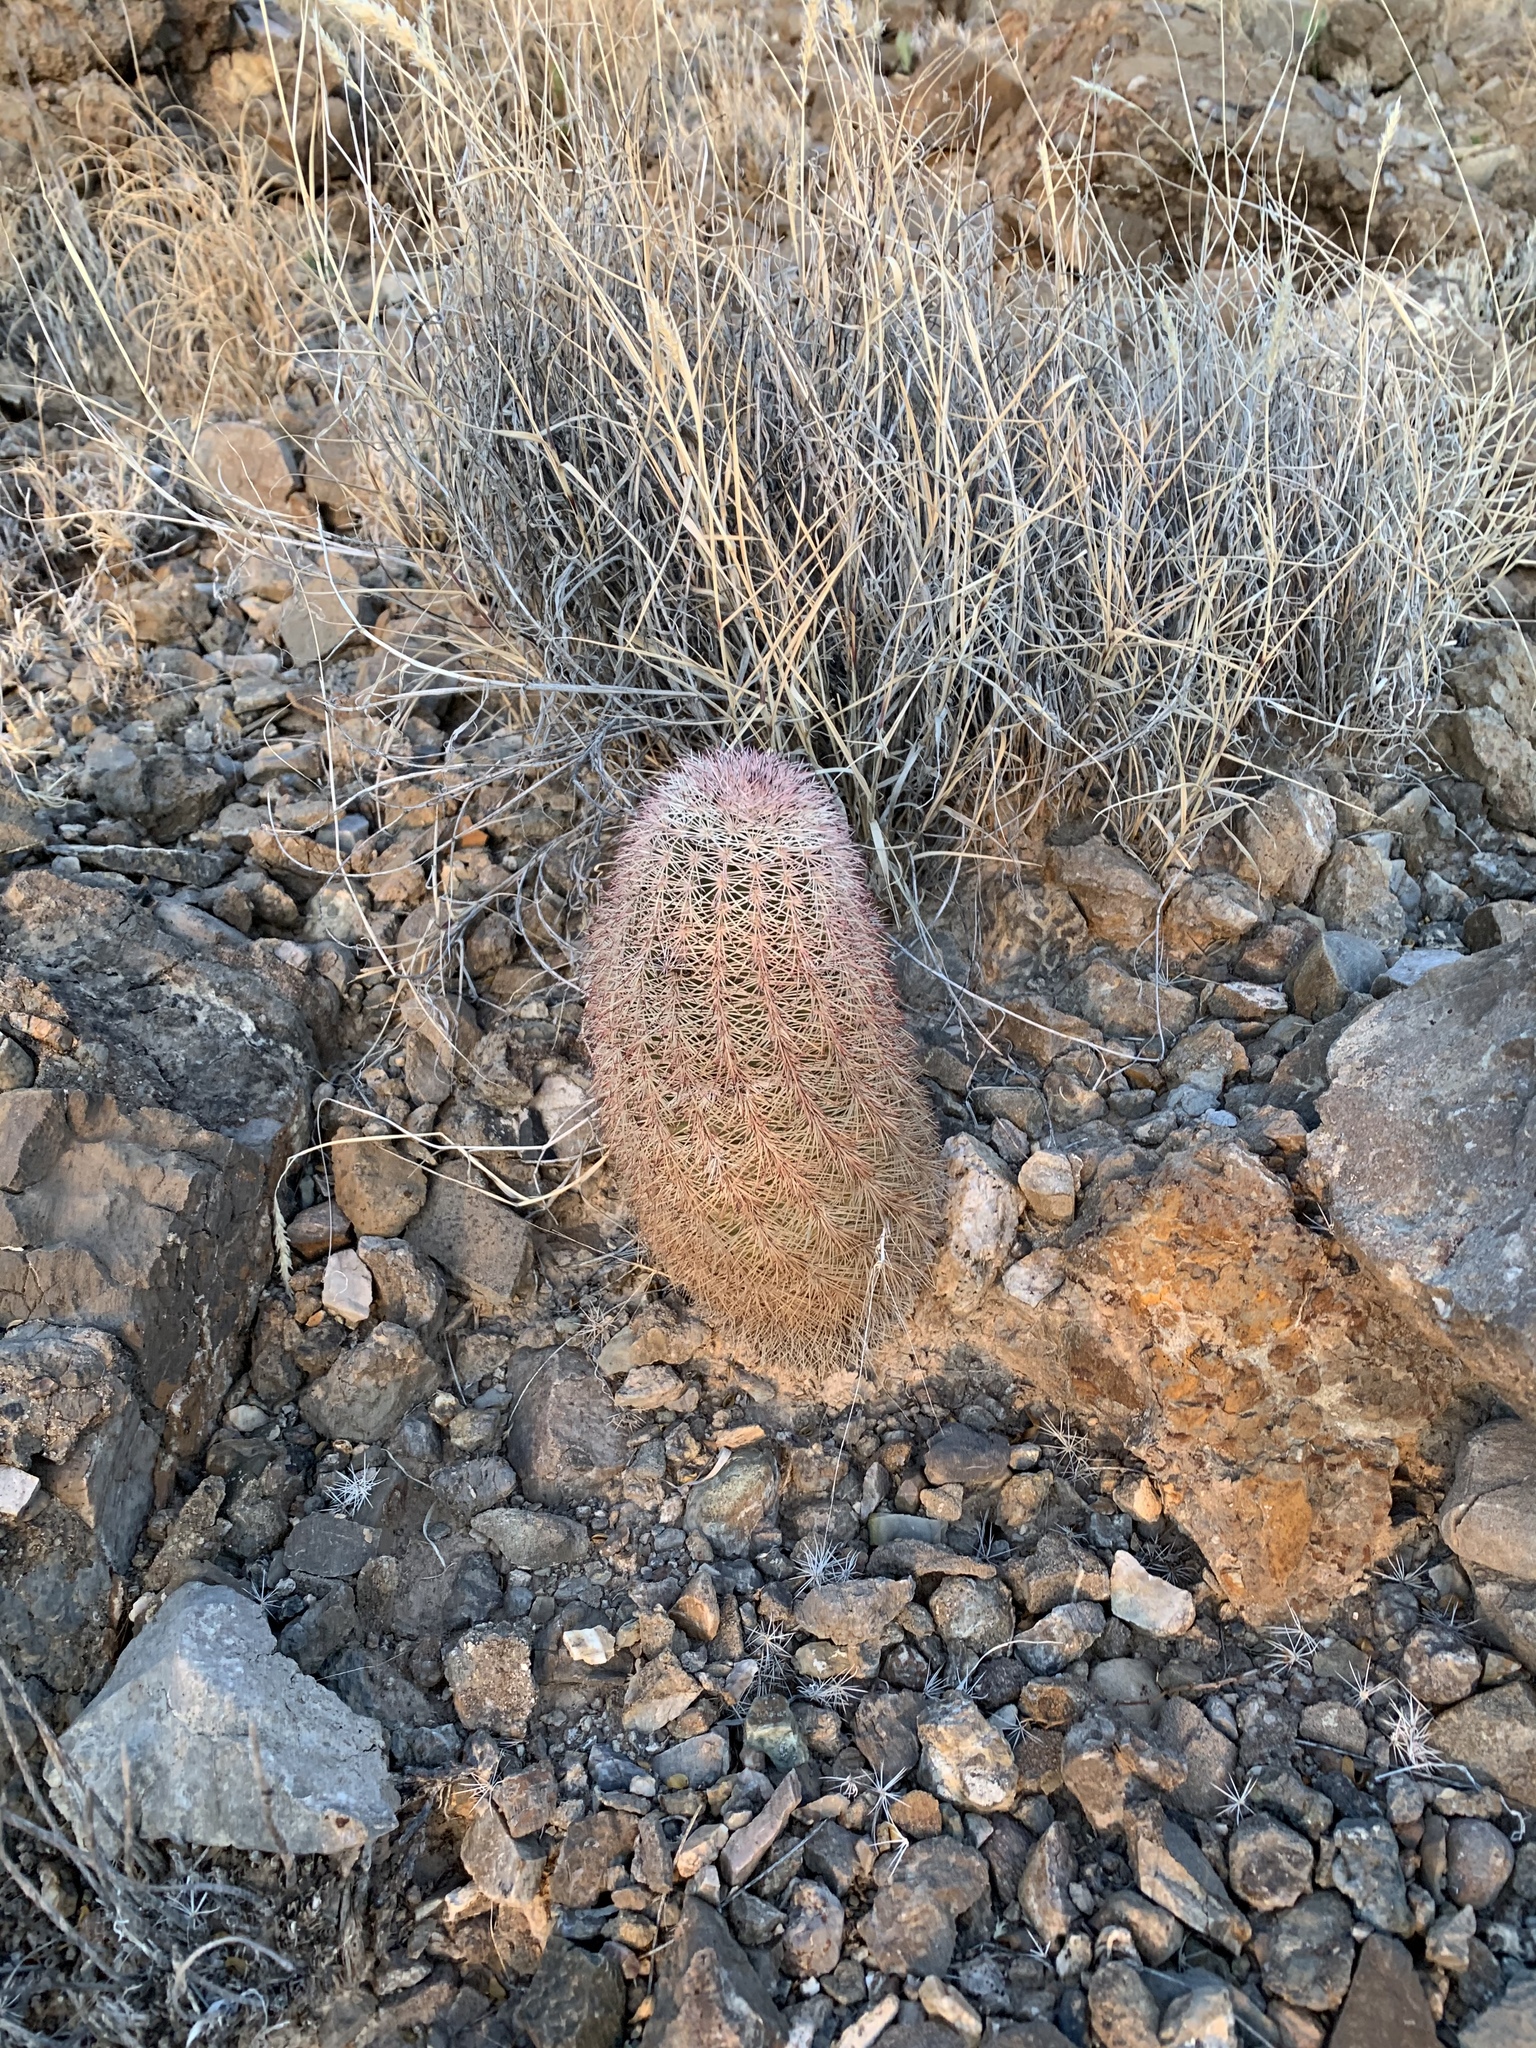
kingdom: Plantae
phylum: Tracheophyta
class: Magnoliopsida
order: Caryophyllales
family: Cactaceae
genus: Echinocereus
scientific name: Echinocereus dasyacanthus
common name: Spiny hedgehog cactus
